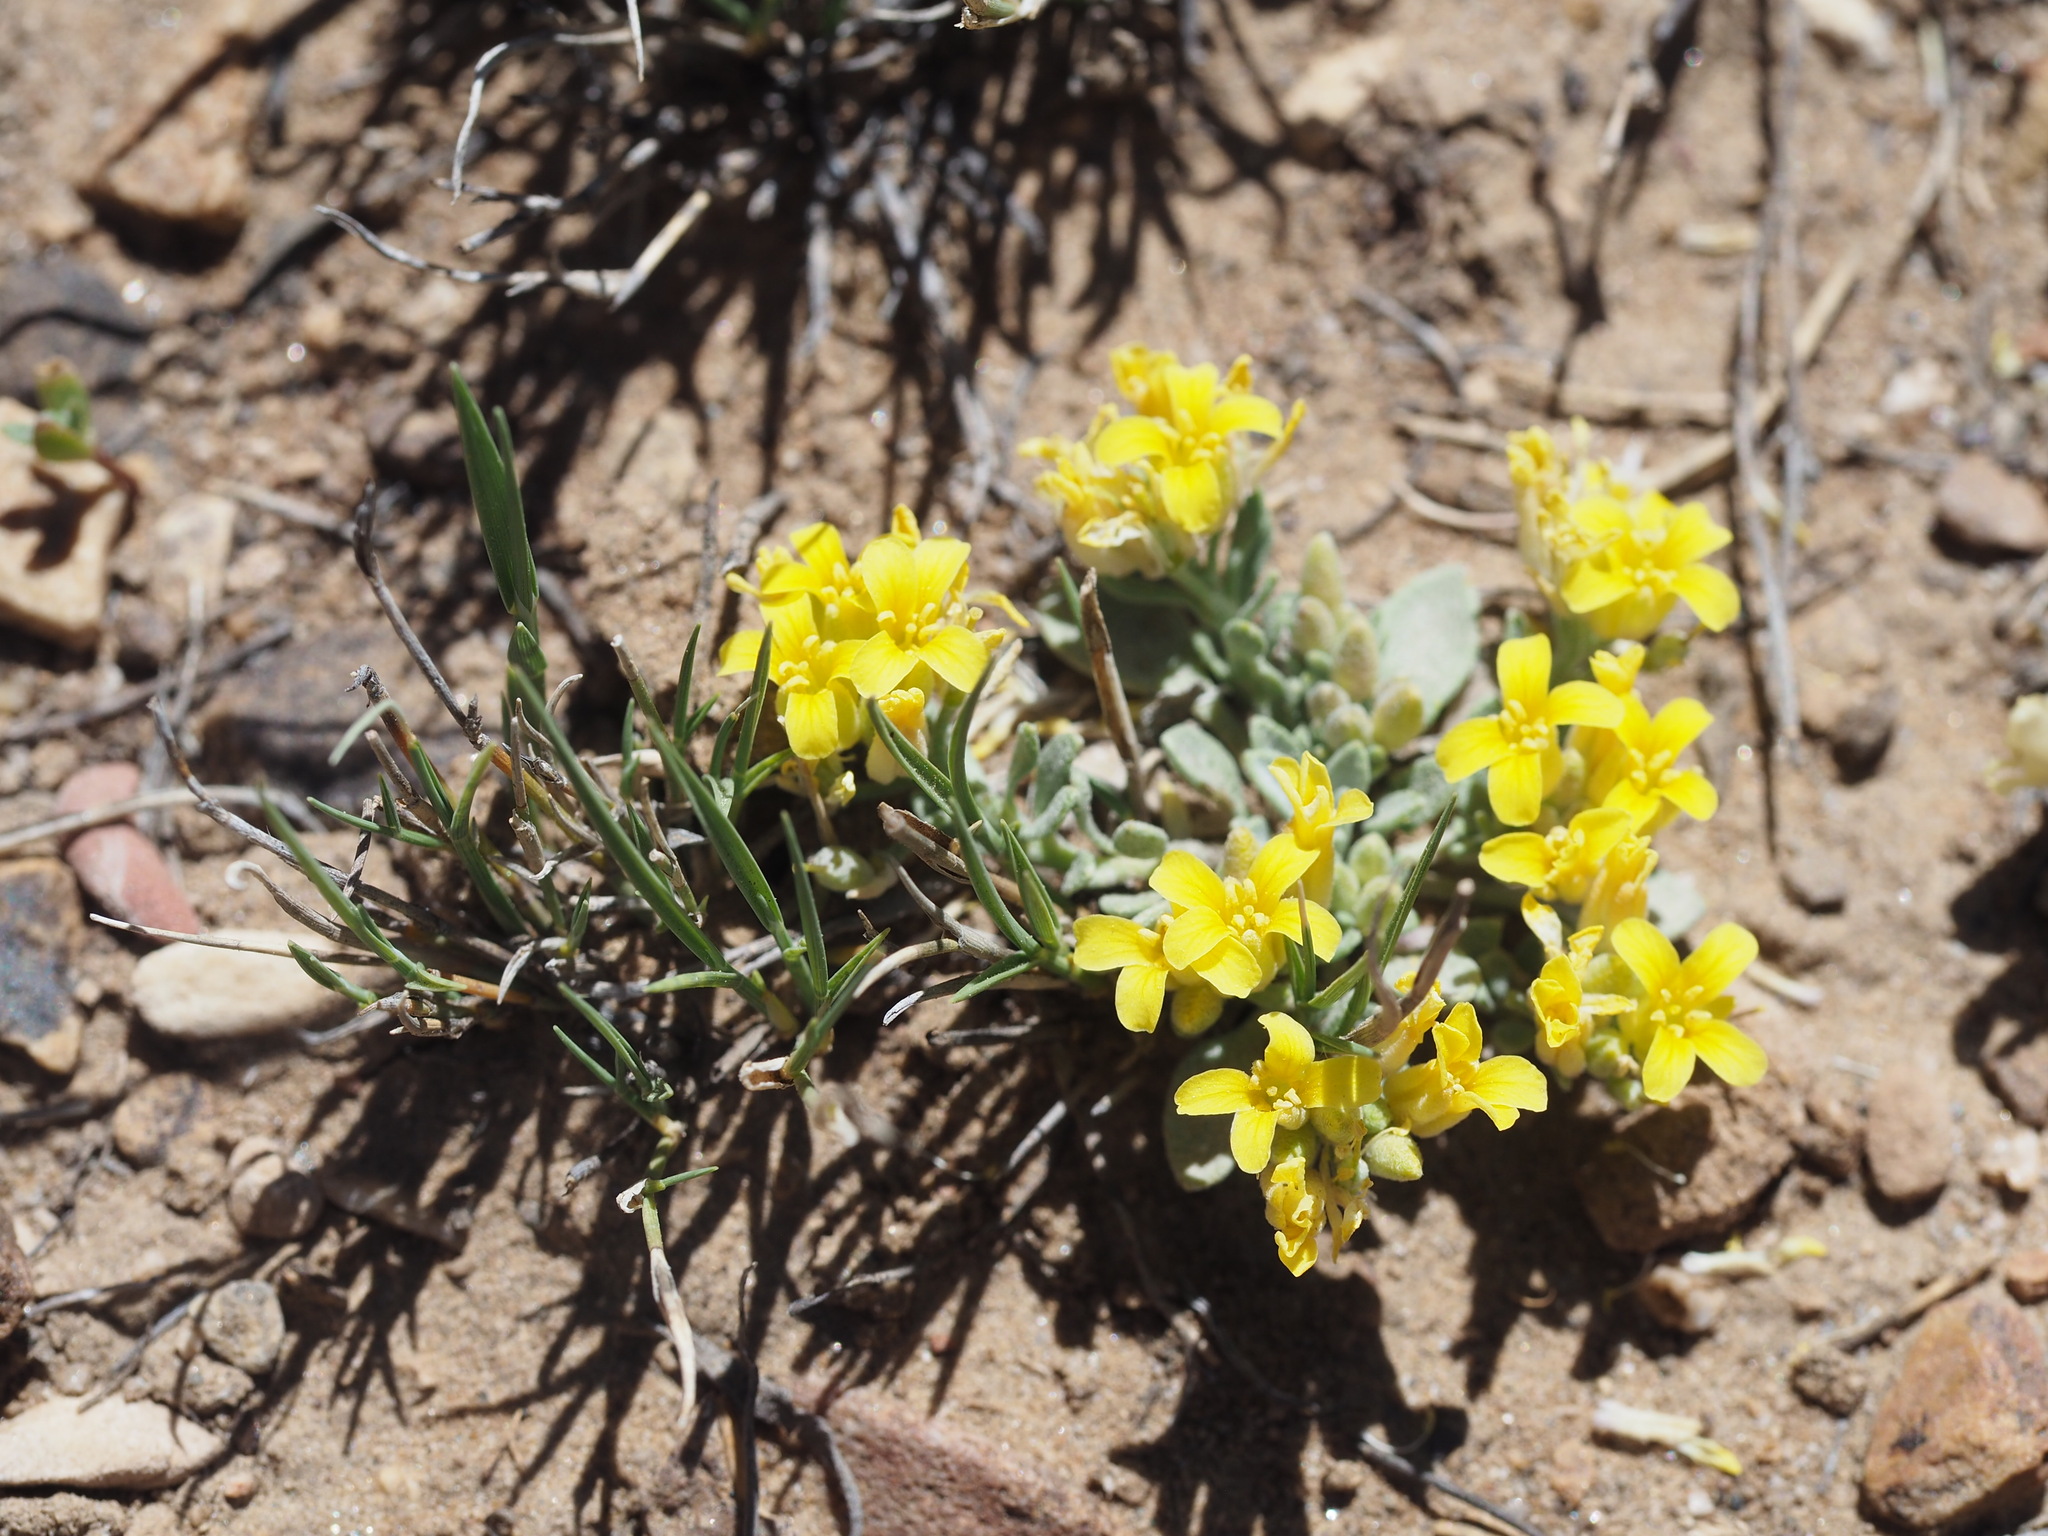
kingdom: Plantae
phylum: Tracheophyta
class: Magnoliopsida
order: Brassicales
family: Brassicaceae
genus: Physaria
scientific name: Physaria kingii
